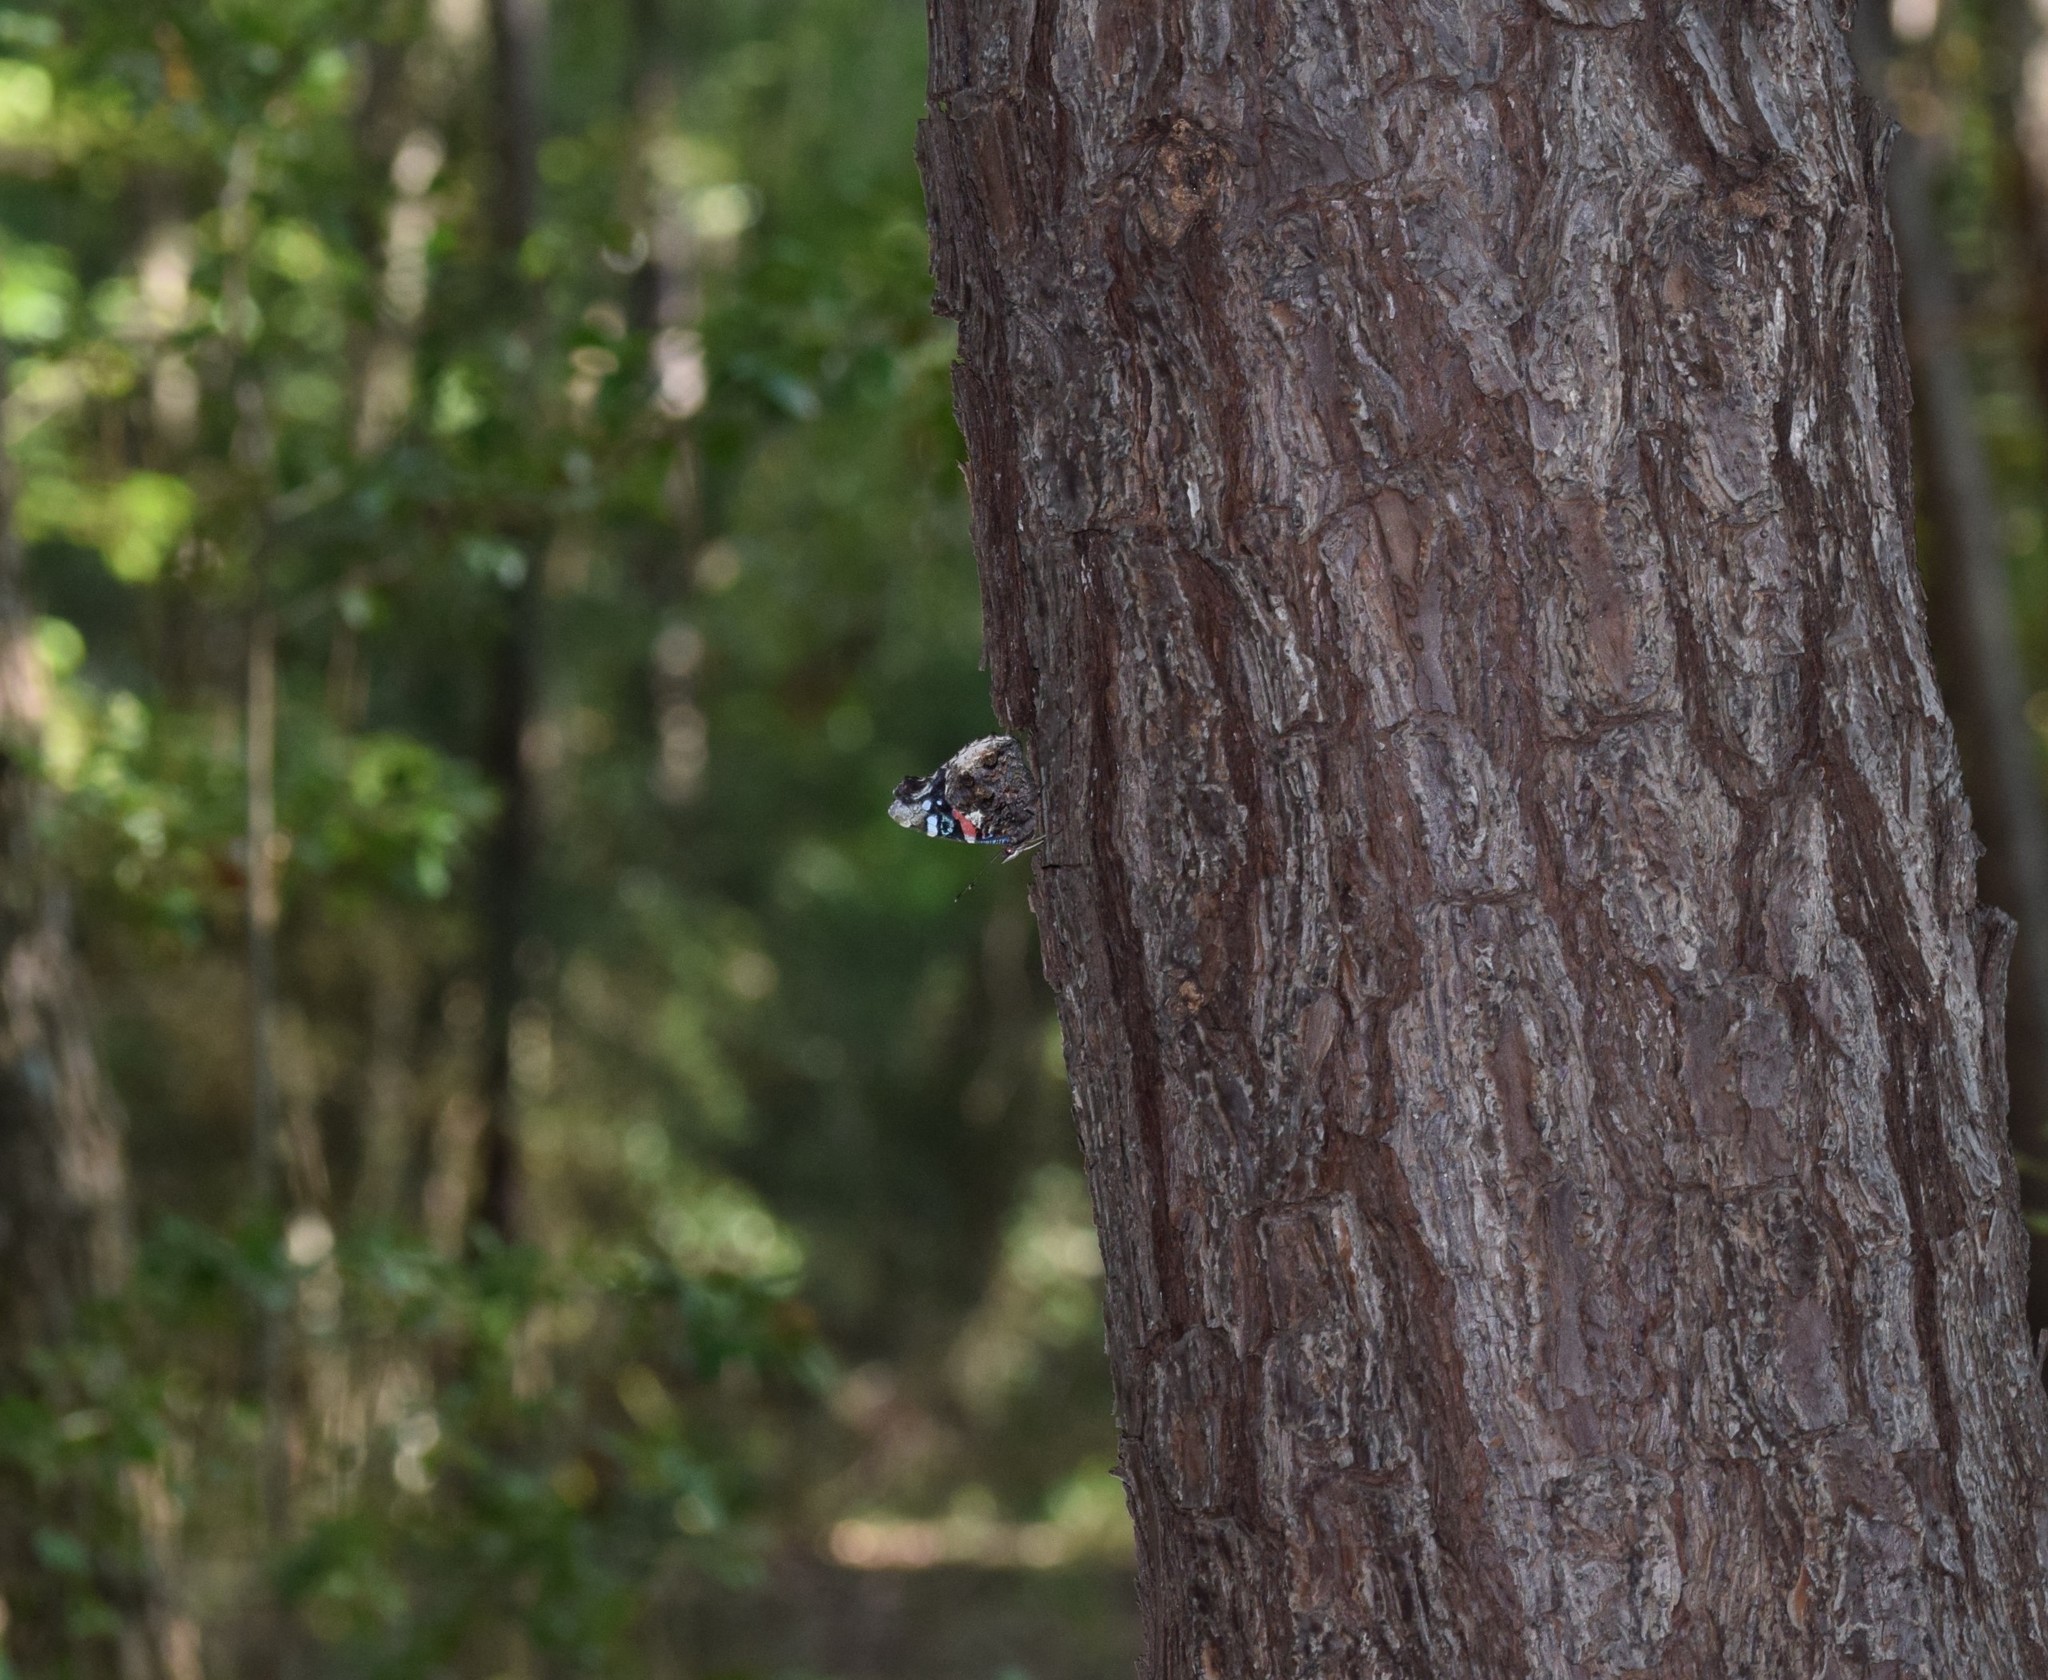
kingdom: Animalia
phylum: Arthropoda
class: Insecta
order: Lepidoptera
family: Nymphalidae
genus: Vanessa
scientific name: Vanessa atalanta
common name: Red admiral
